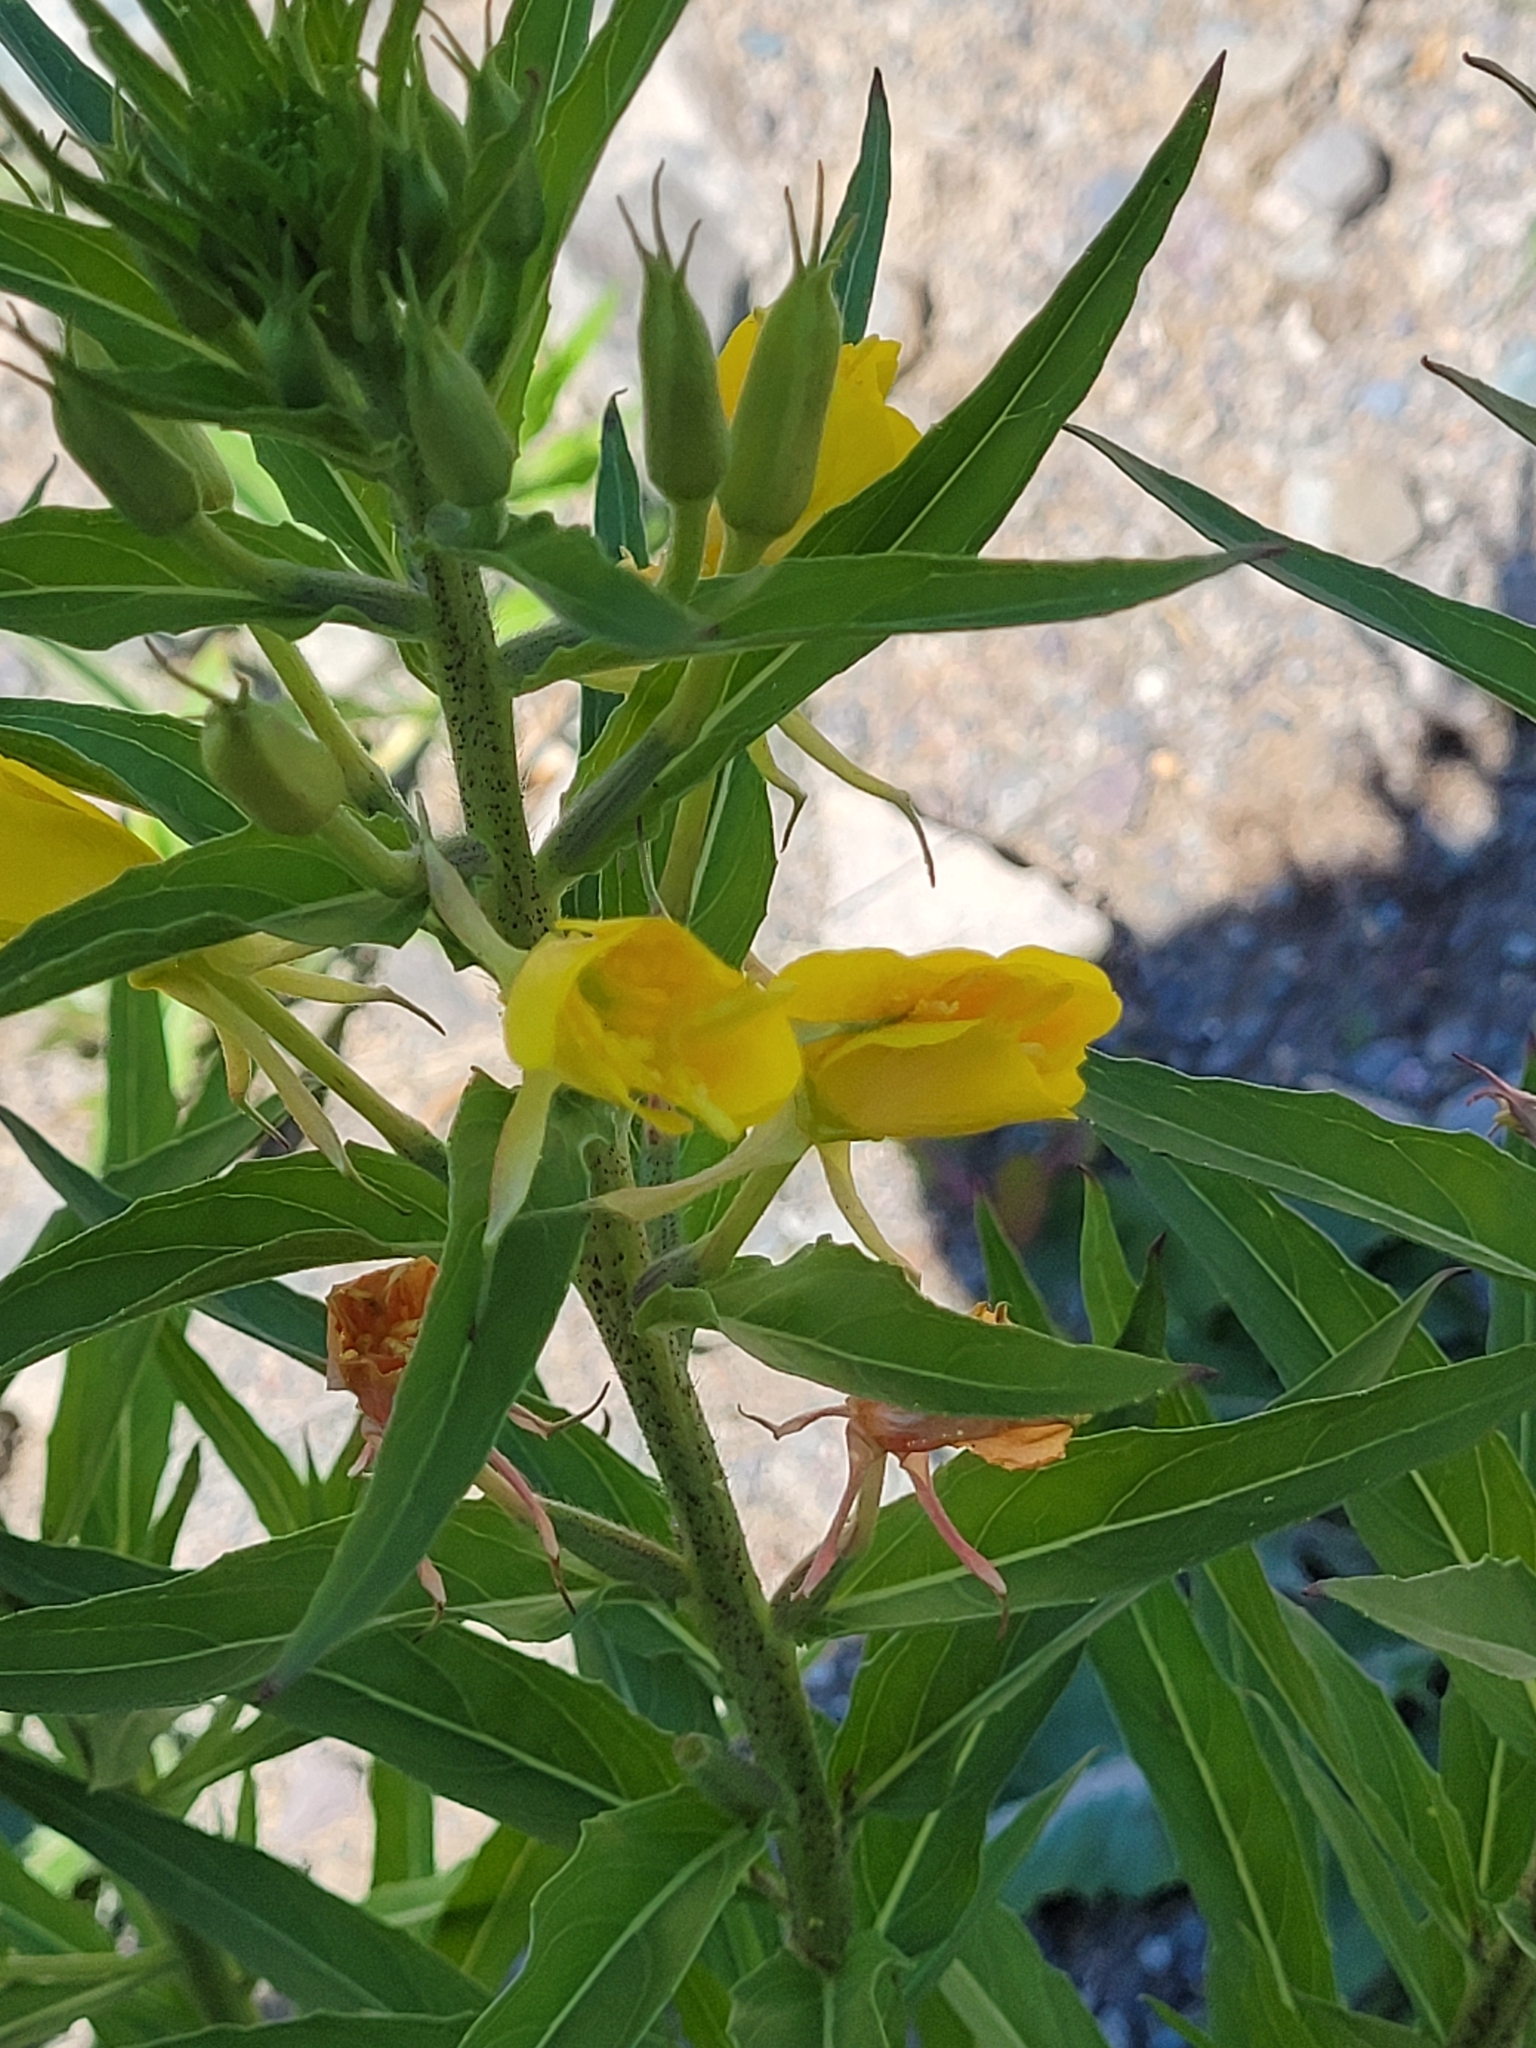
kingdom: Plantae
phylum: Tracheophyta
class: Magnoliopsida
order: Myrtales
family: Onagraceae
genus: Oenothera
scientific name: Oenothera parviflora
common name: Least evening-primrose
